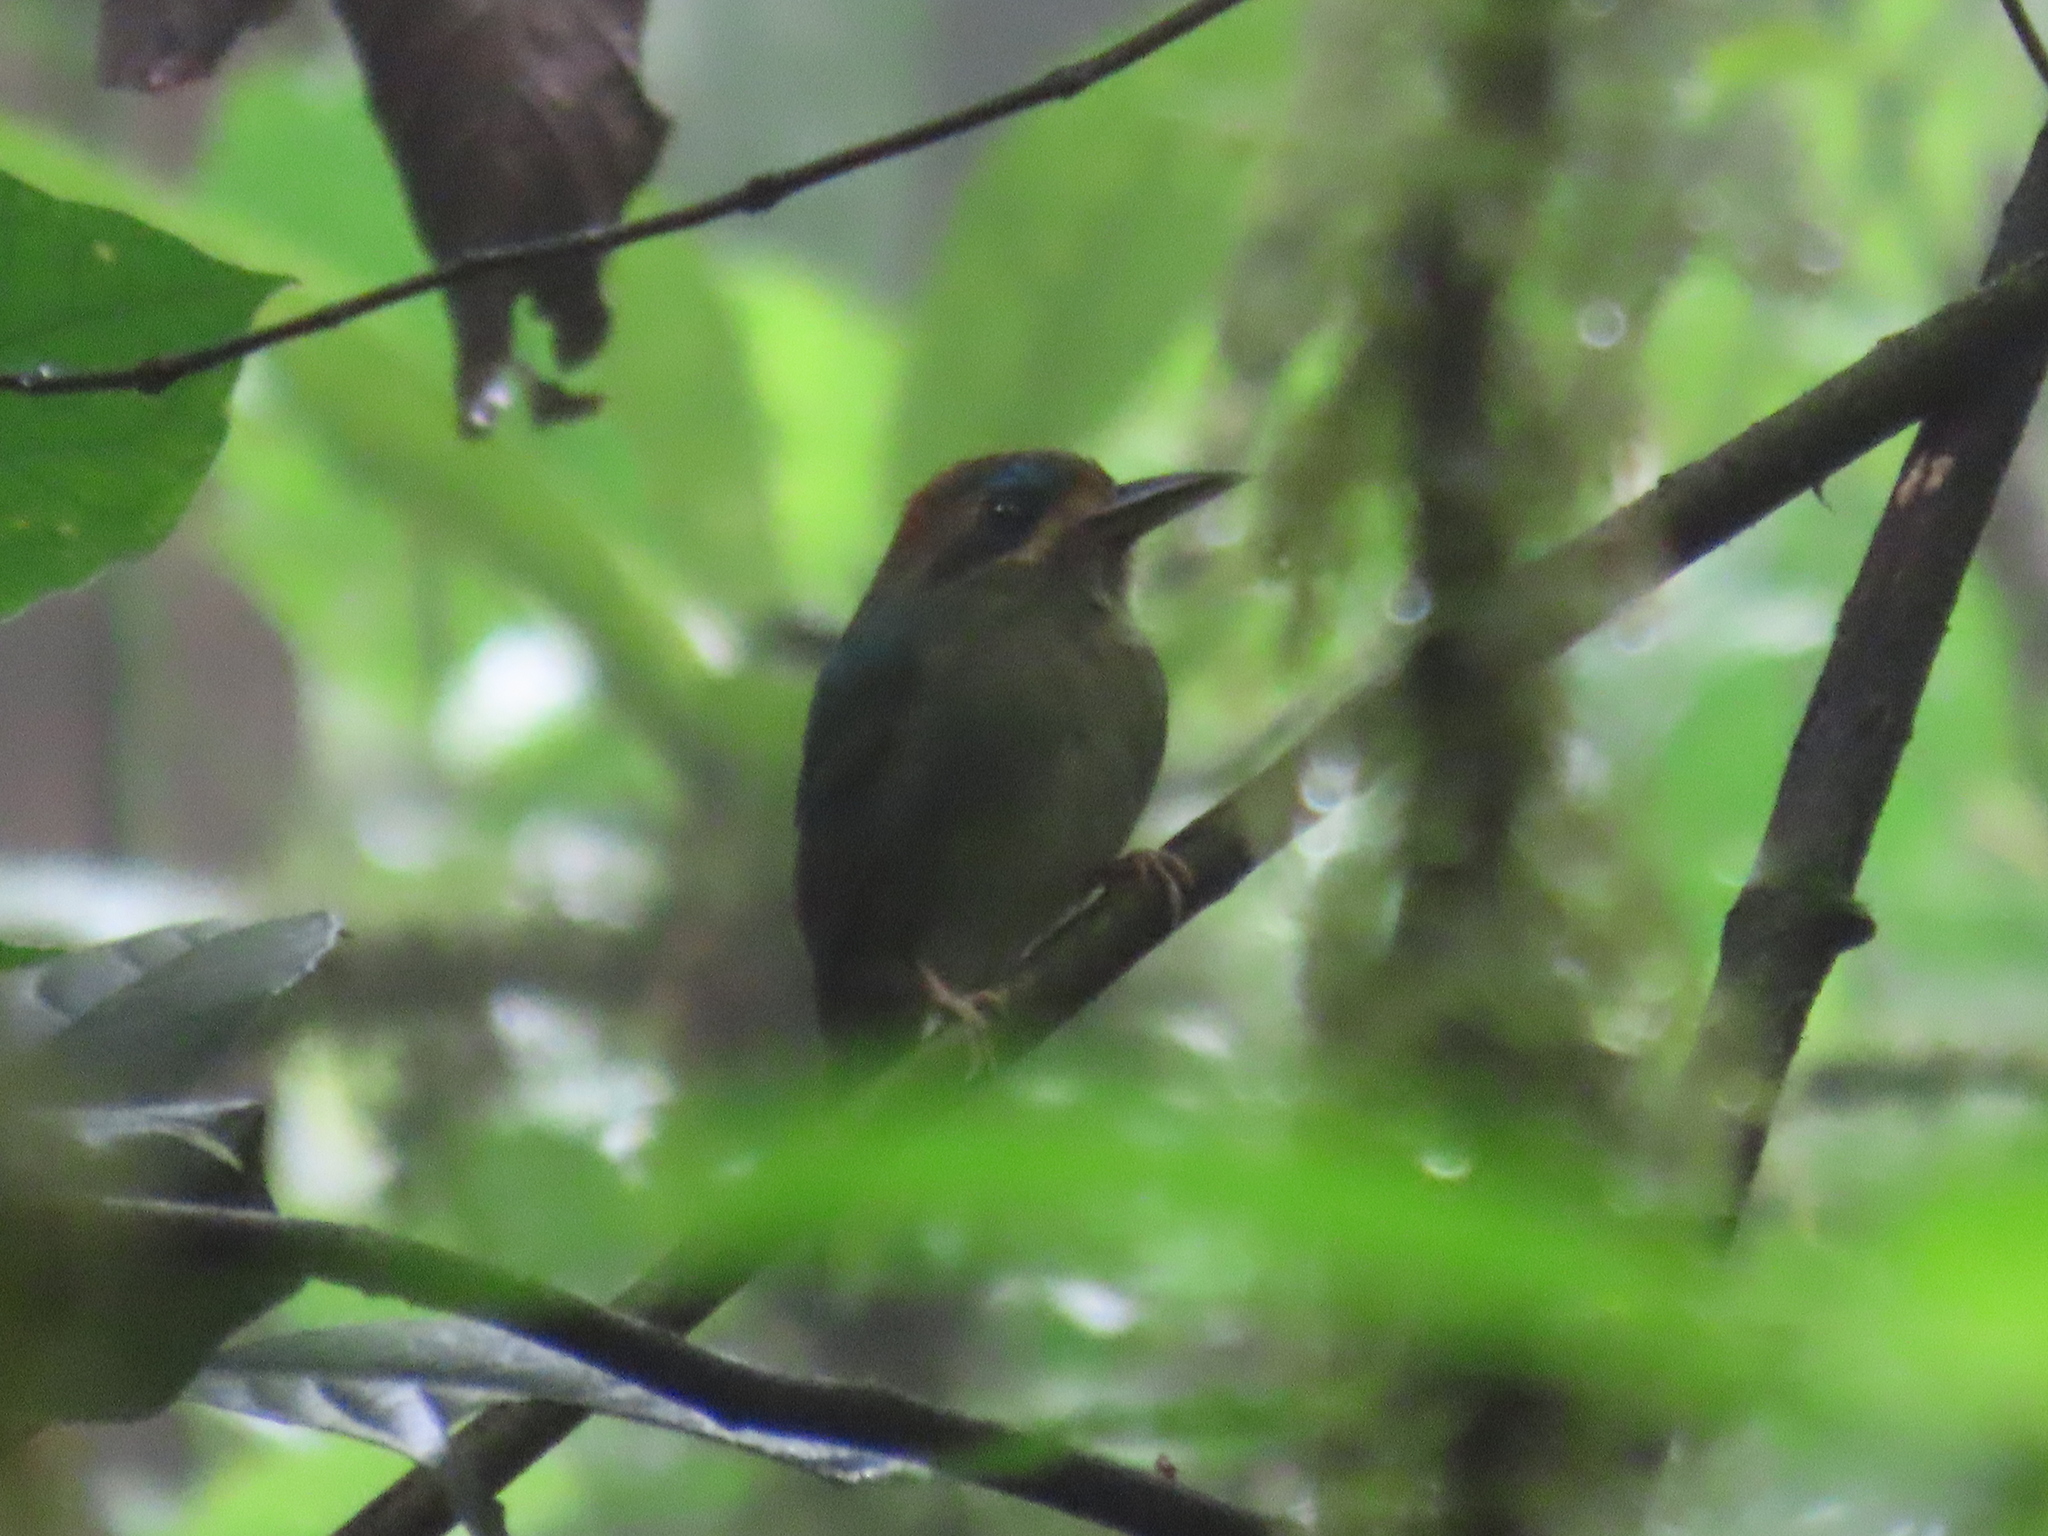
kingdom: Animalia
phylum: Chordata
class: Aves
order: Coraciiformes
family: Momotidae
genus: Hylomanes
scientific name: Hylomanes momotula
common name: Tody motmot
